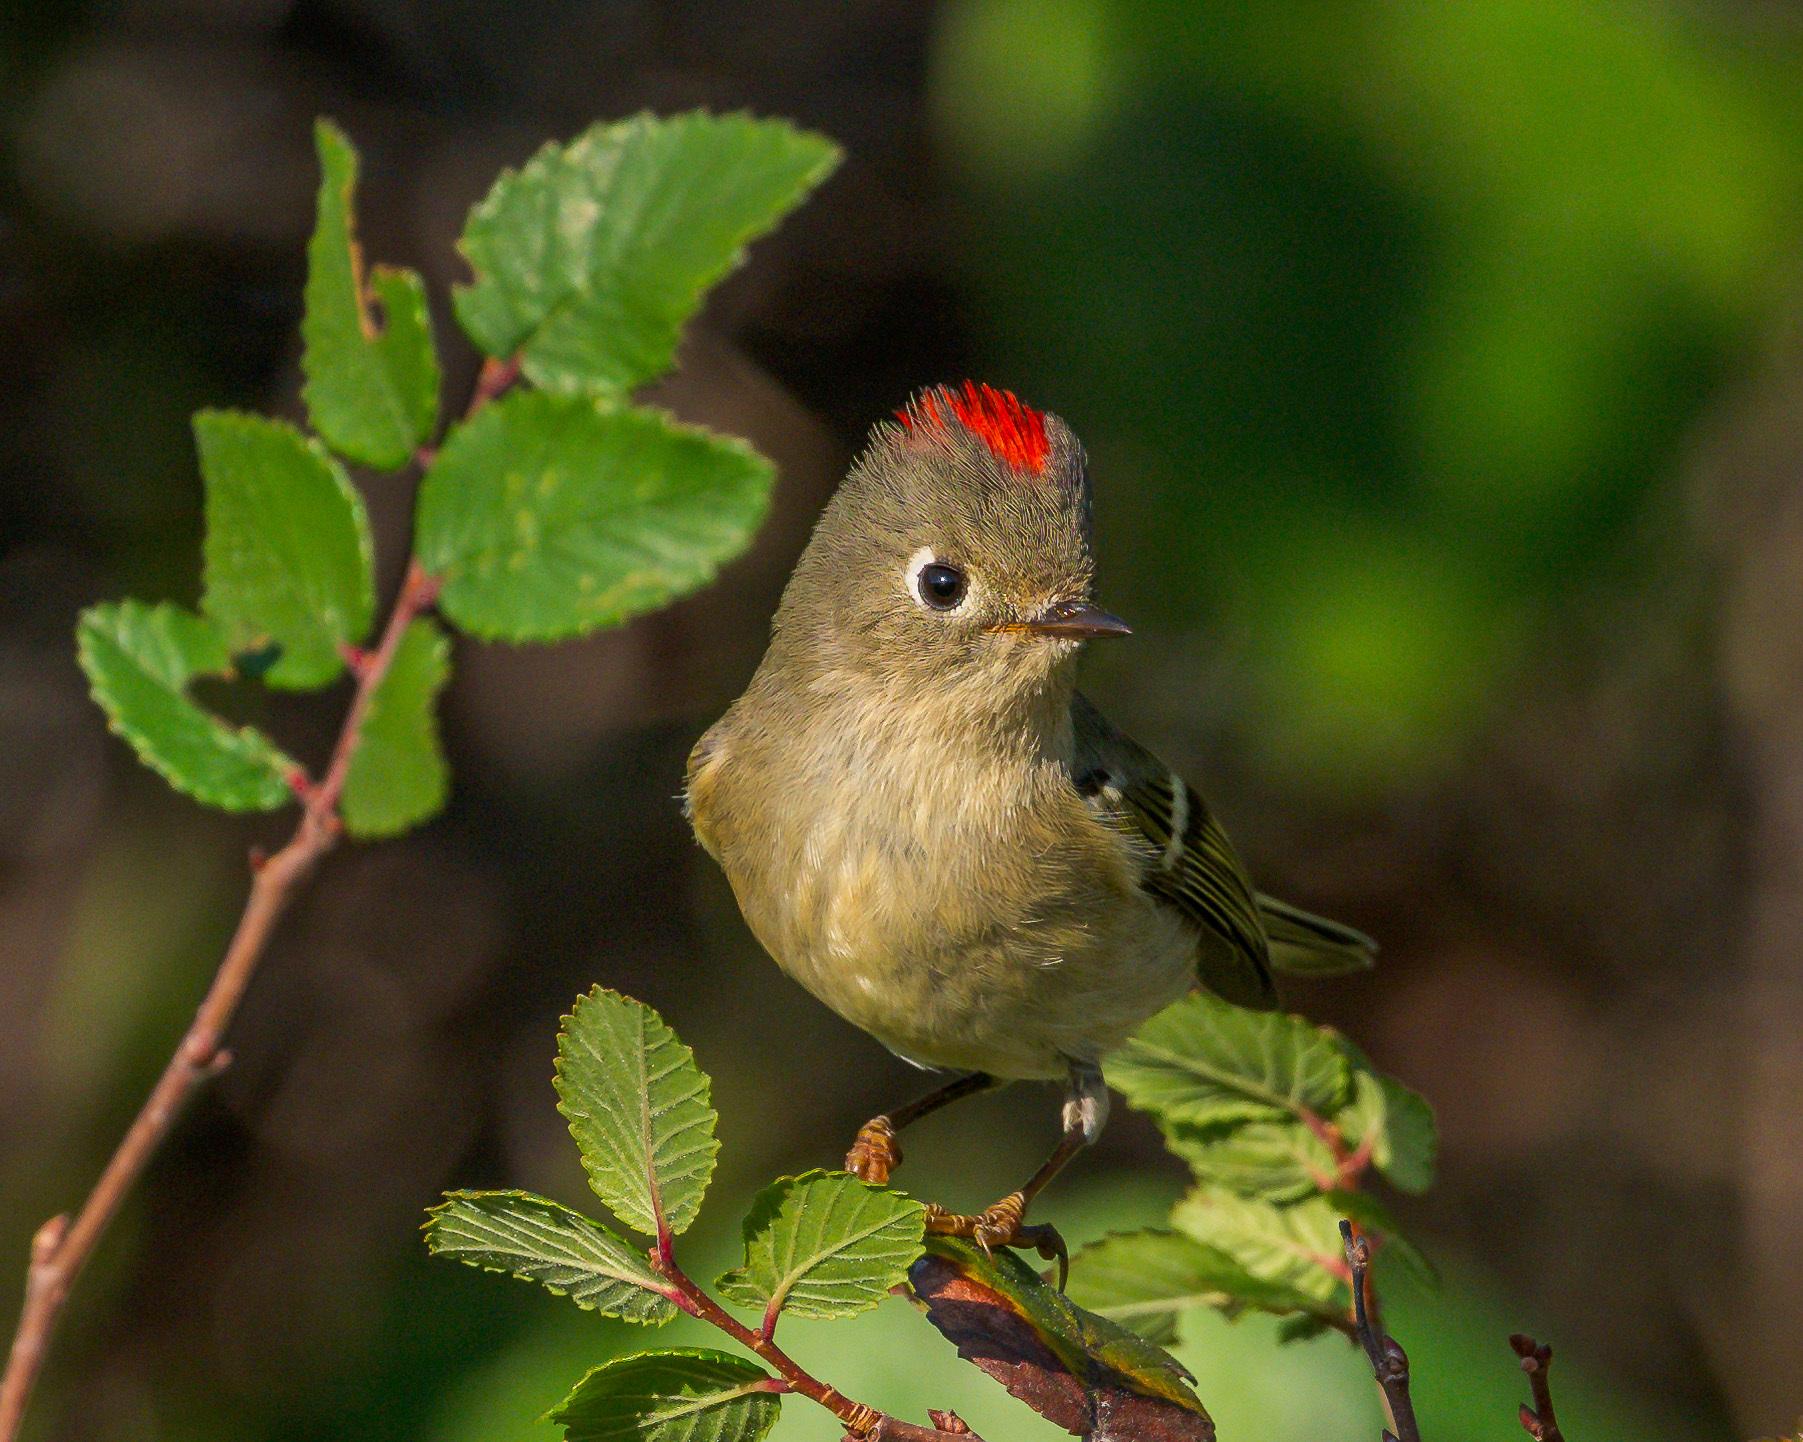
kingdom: Animalia
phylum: Chordata
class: Aves
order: Passeriformes
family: Regulidae
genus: Regulus
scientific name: Regulus calendula
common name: Ruby-crowned kinglet
